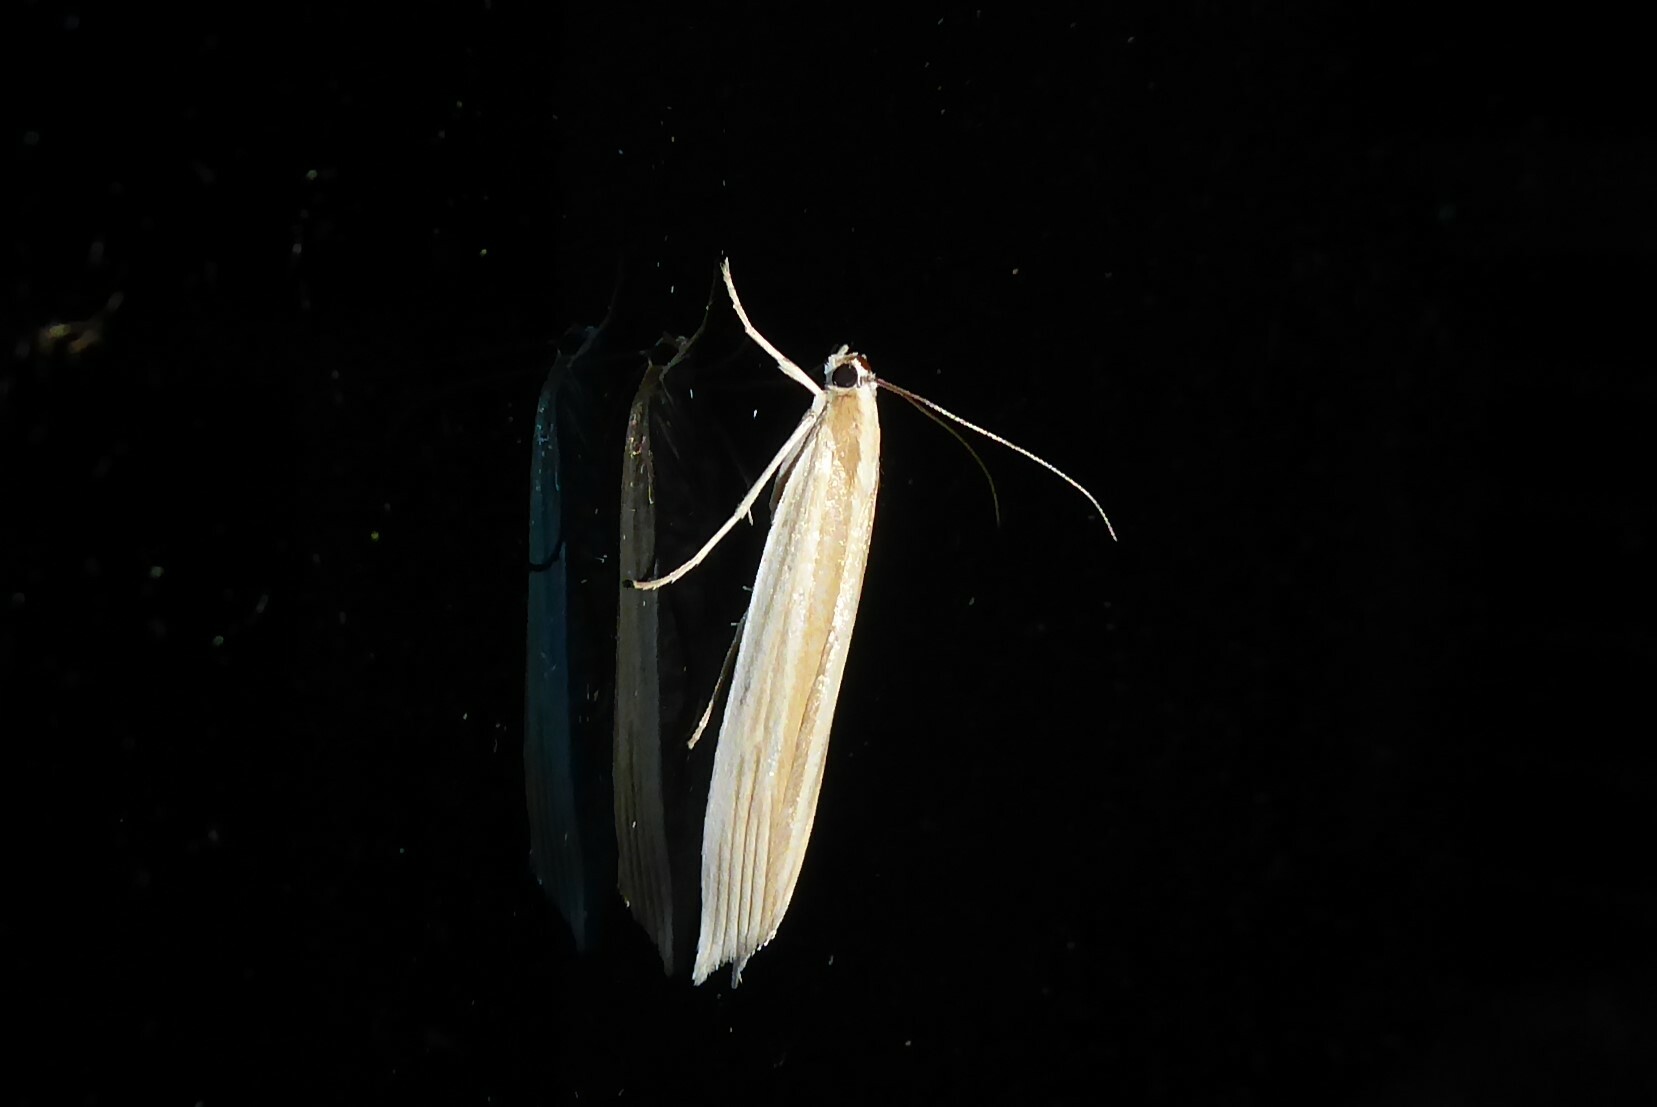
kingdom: Animalia
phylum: Arthropoda
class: Insecta
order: Lepidoptera
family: Crambidae
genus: Orocrambus
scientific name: Orocrambus angustipennis
